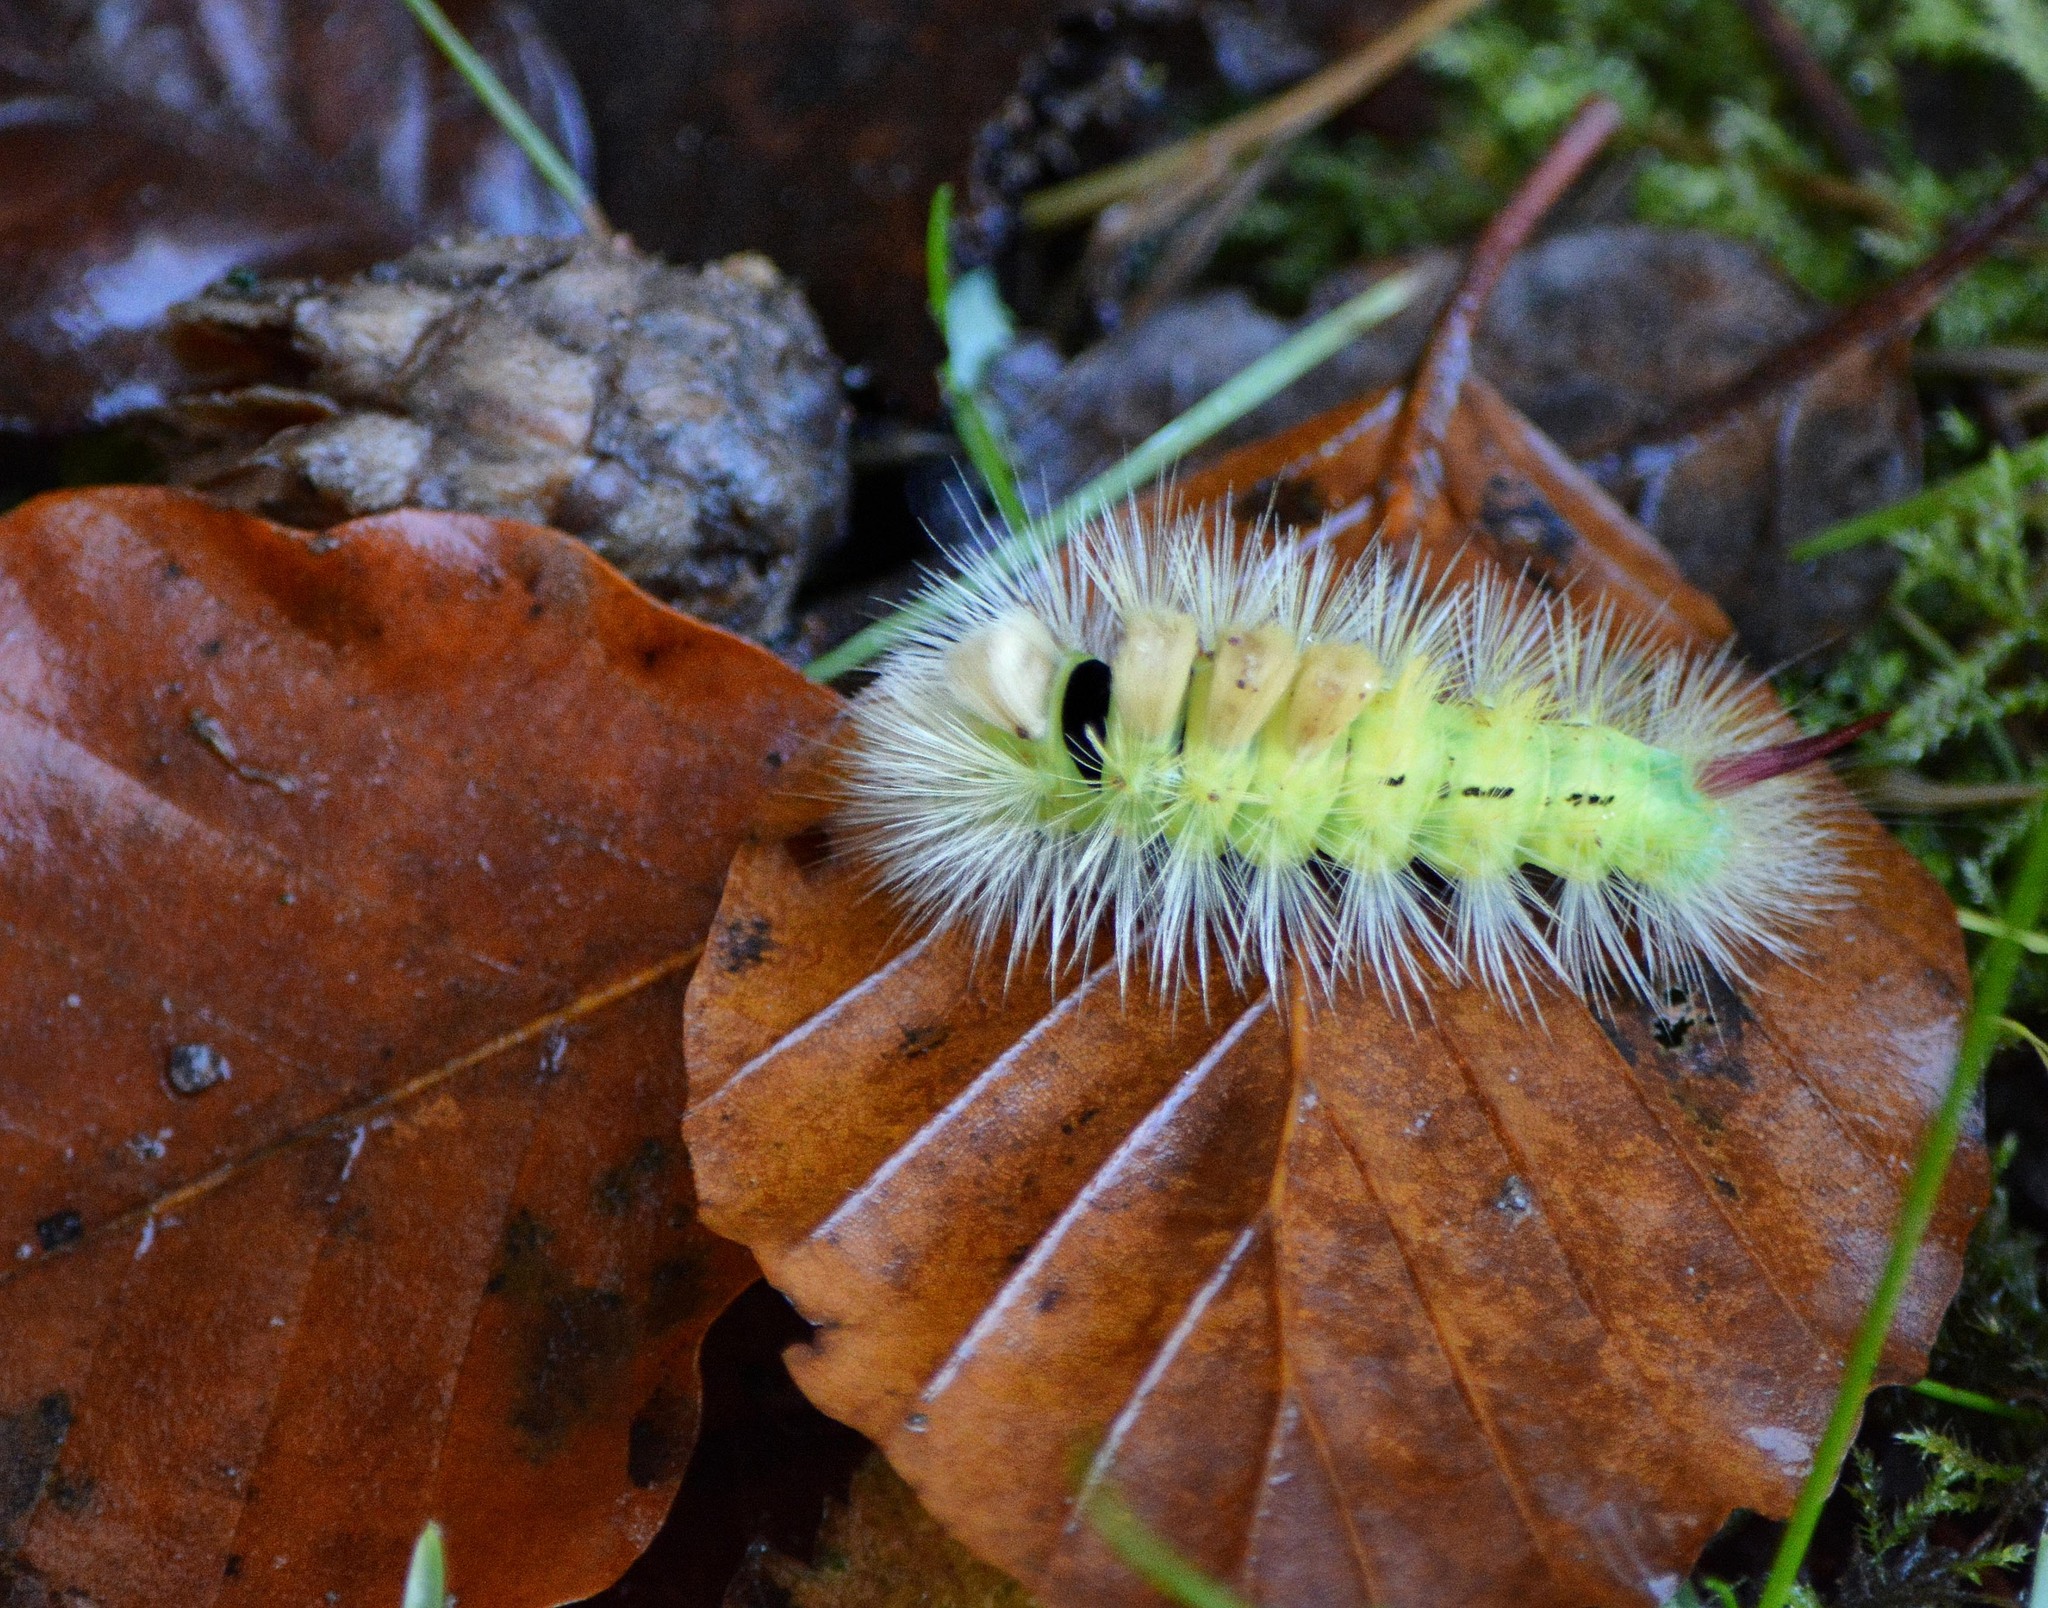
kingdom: Animalia
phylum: Arthropoda
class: Insecta
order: Lepidoptera
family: Erebidae
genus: Calliteara
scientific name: Calliteara pudibunda
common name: Pale tussock
